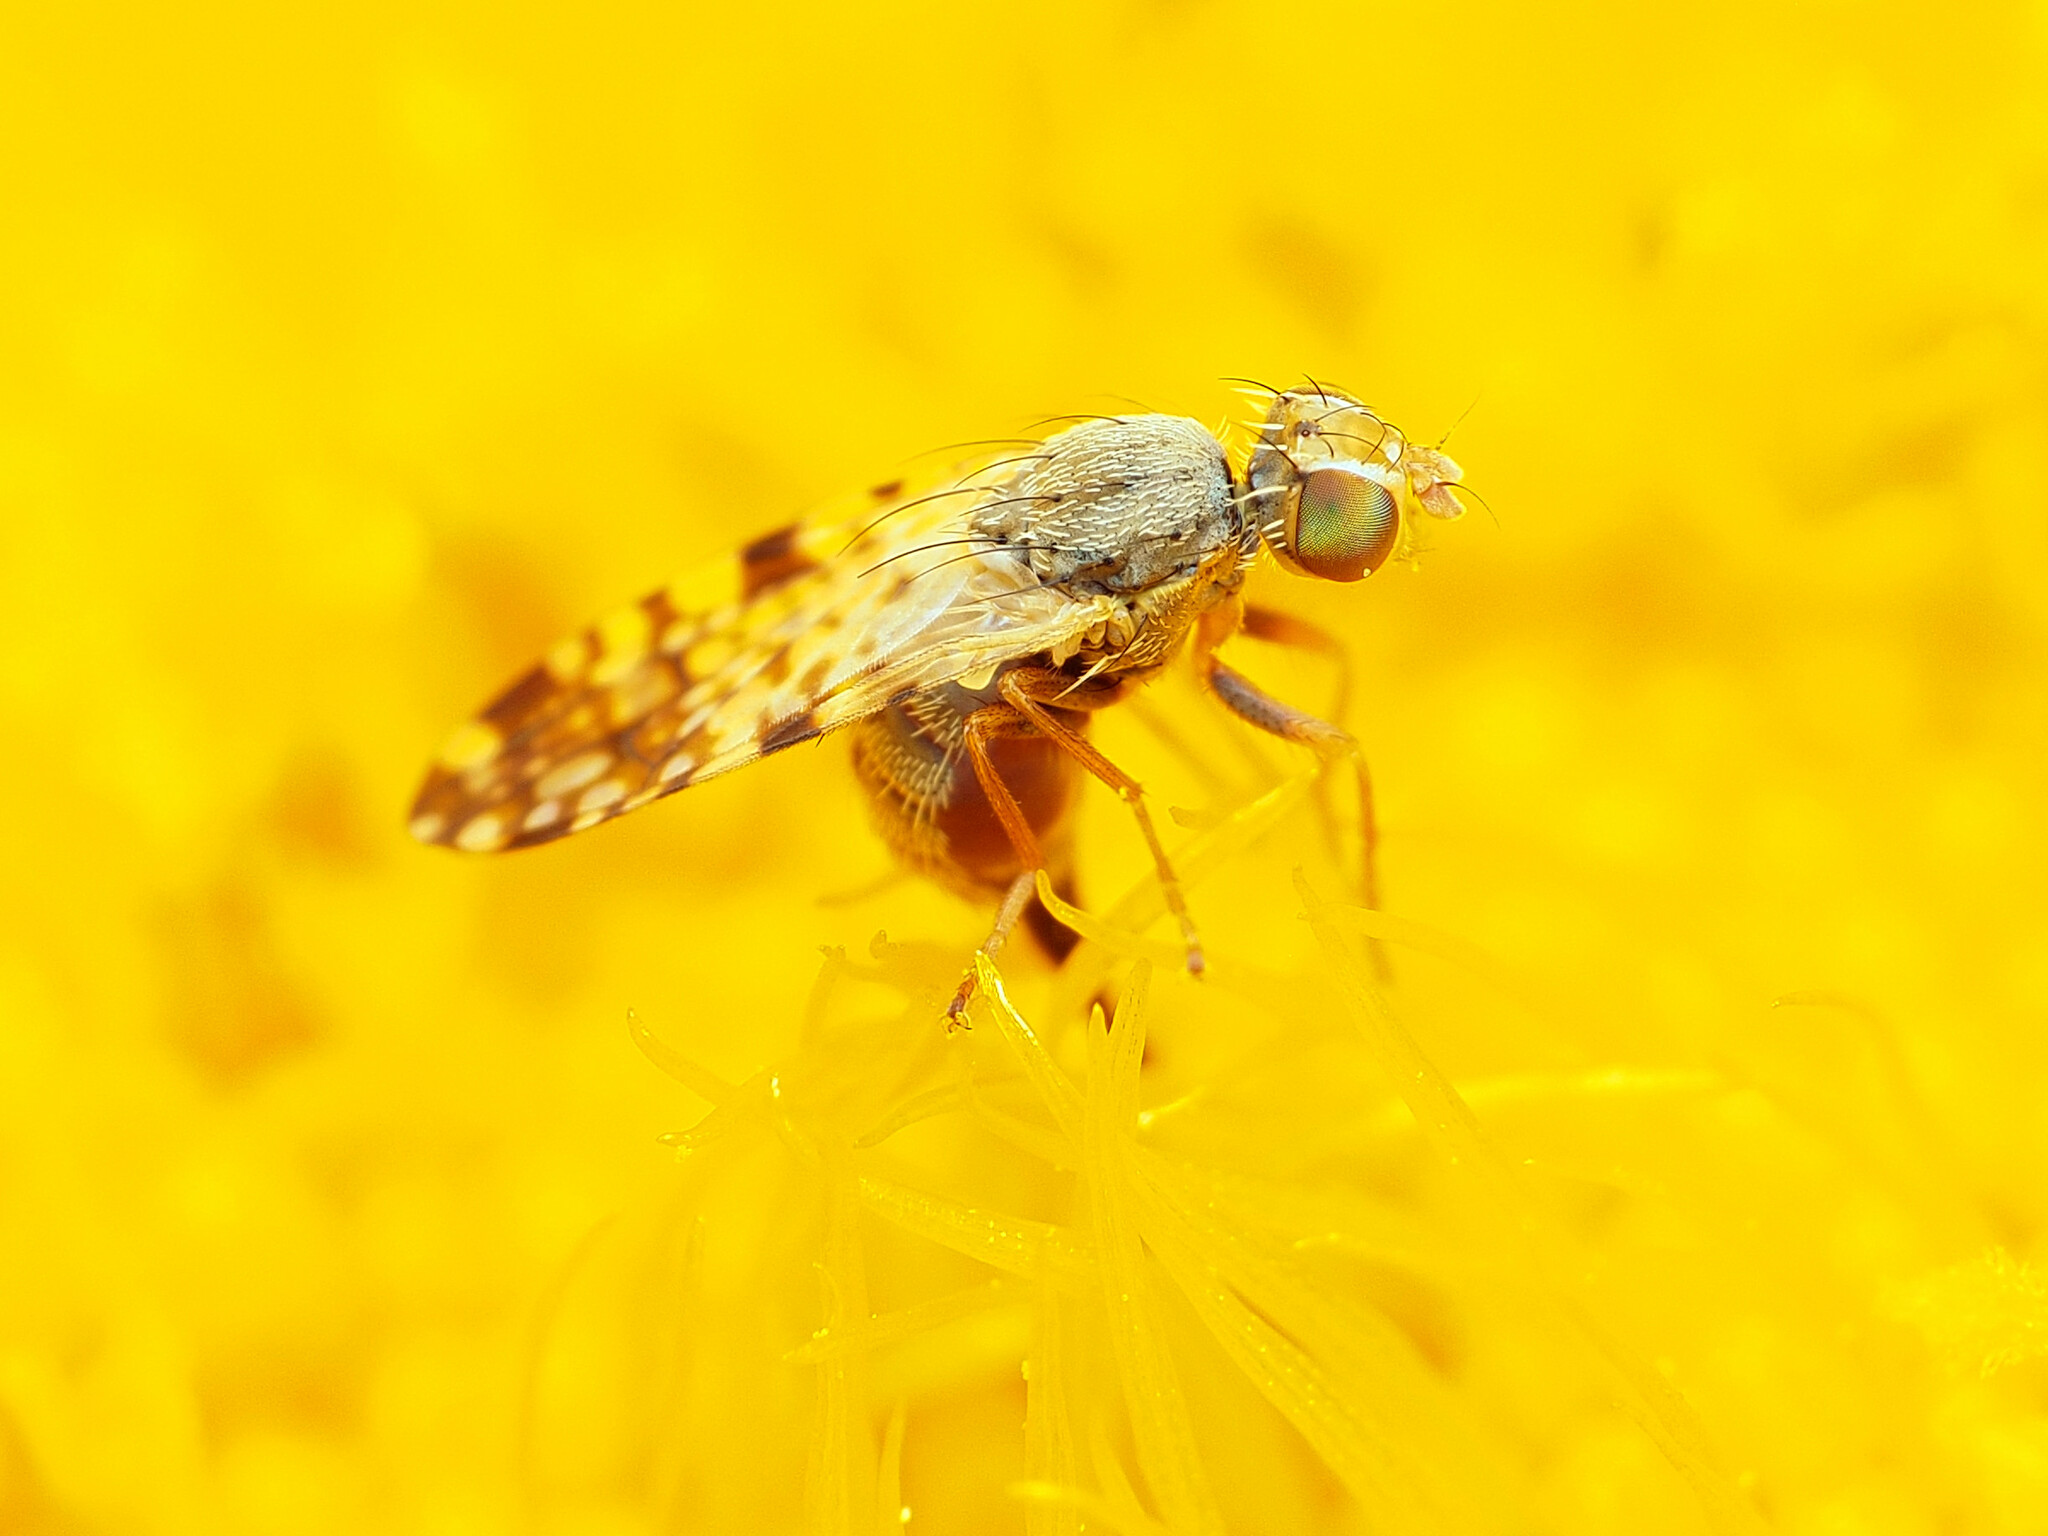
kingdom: Animalia
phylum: Arthropoda
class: Insecta
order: Diptera
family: Tephritidae
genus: Dioxyna
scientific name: Dioxyna picciola
